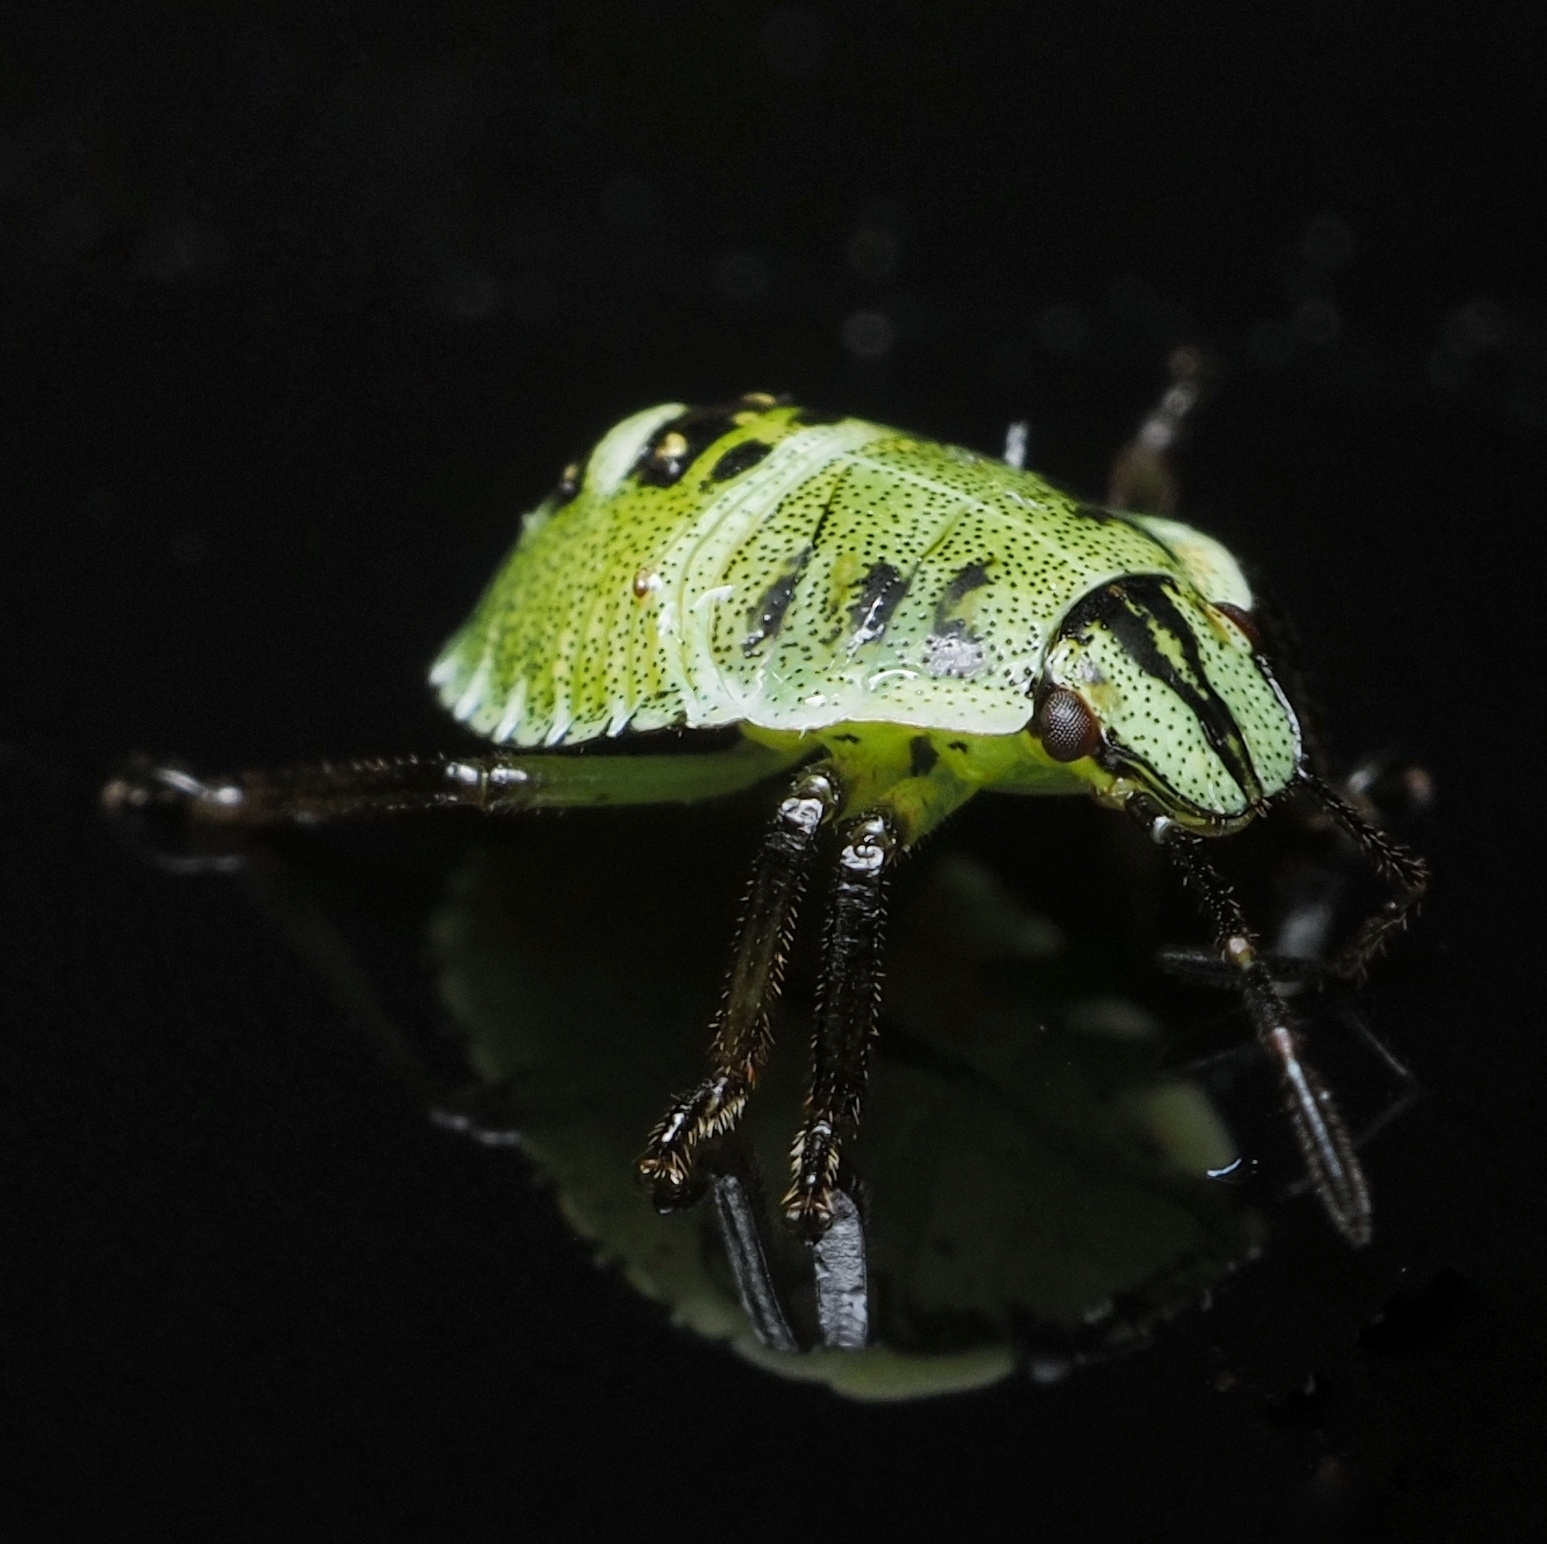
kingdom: Animalia
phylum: Arthropoda
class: Insecta
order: Hemiptera
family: Pentatomidae
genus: Palomena
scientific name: Palomena prasina
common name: Green shieldbug
